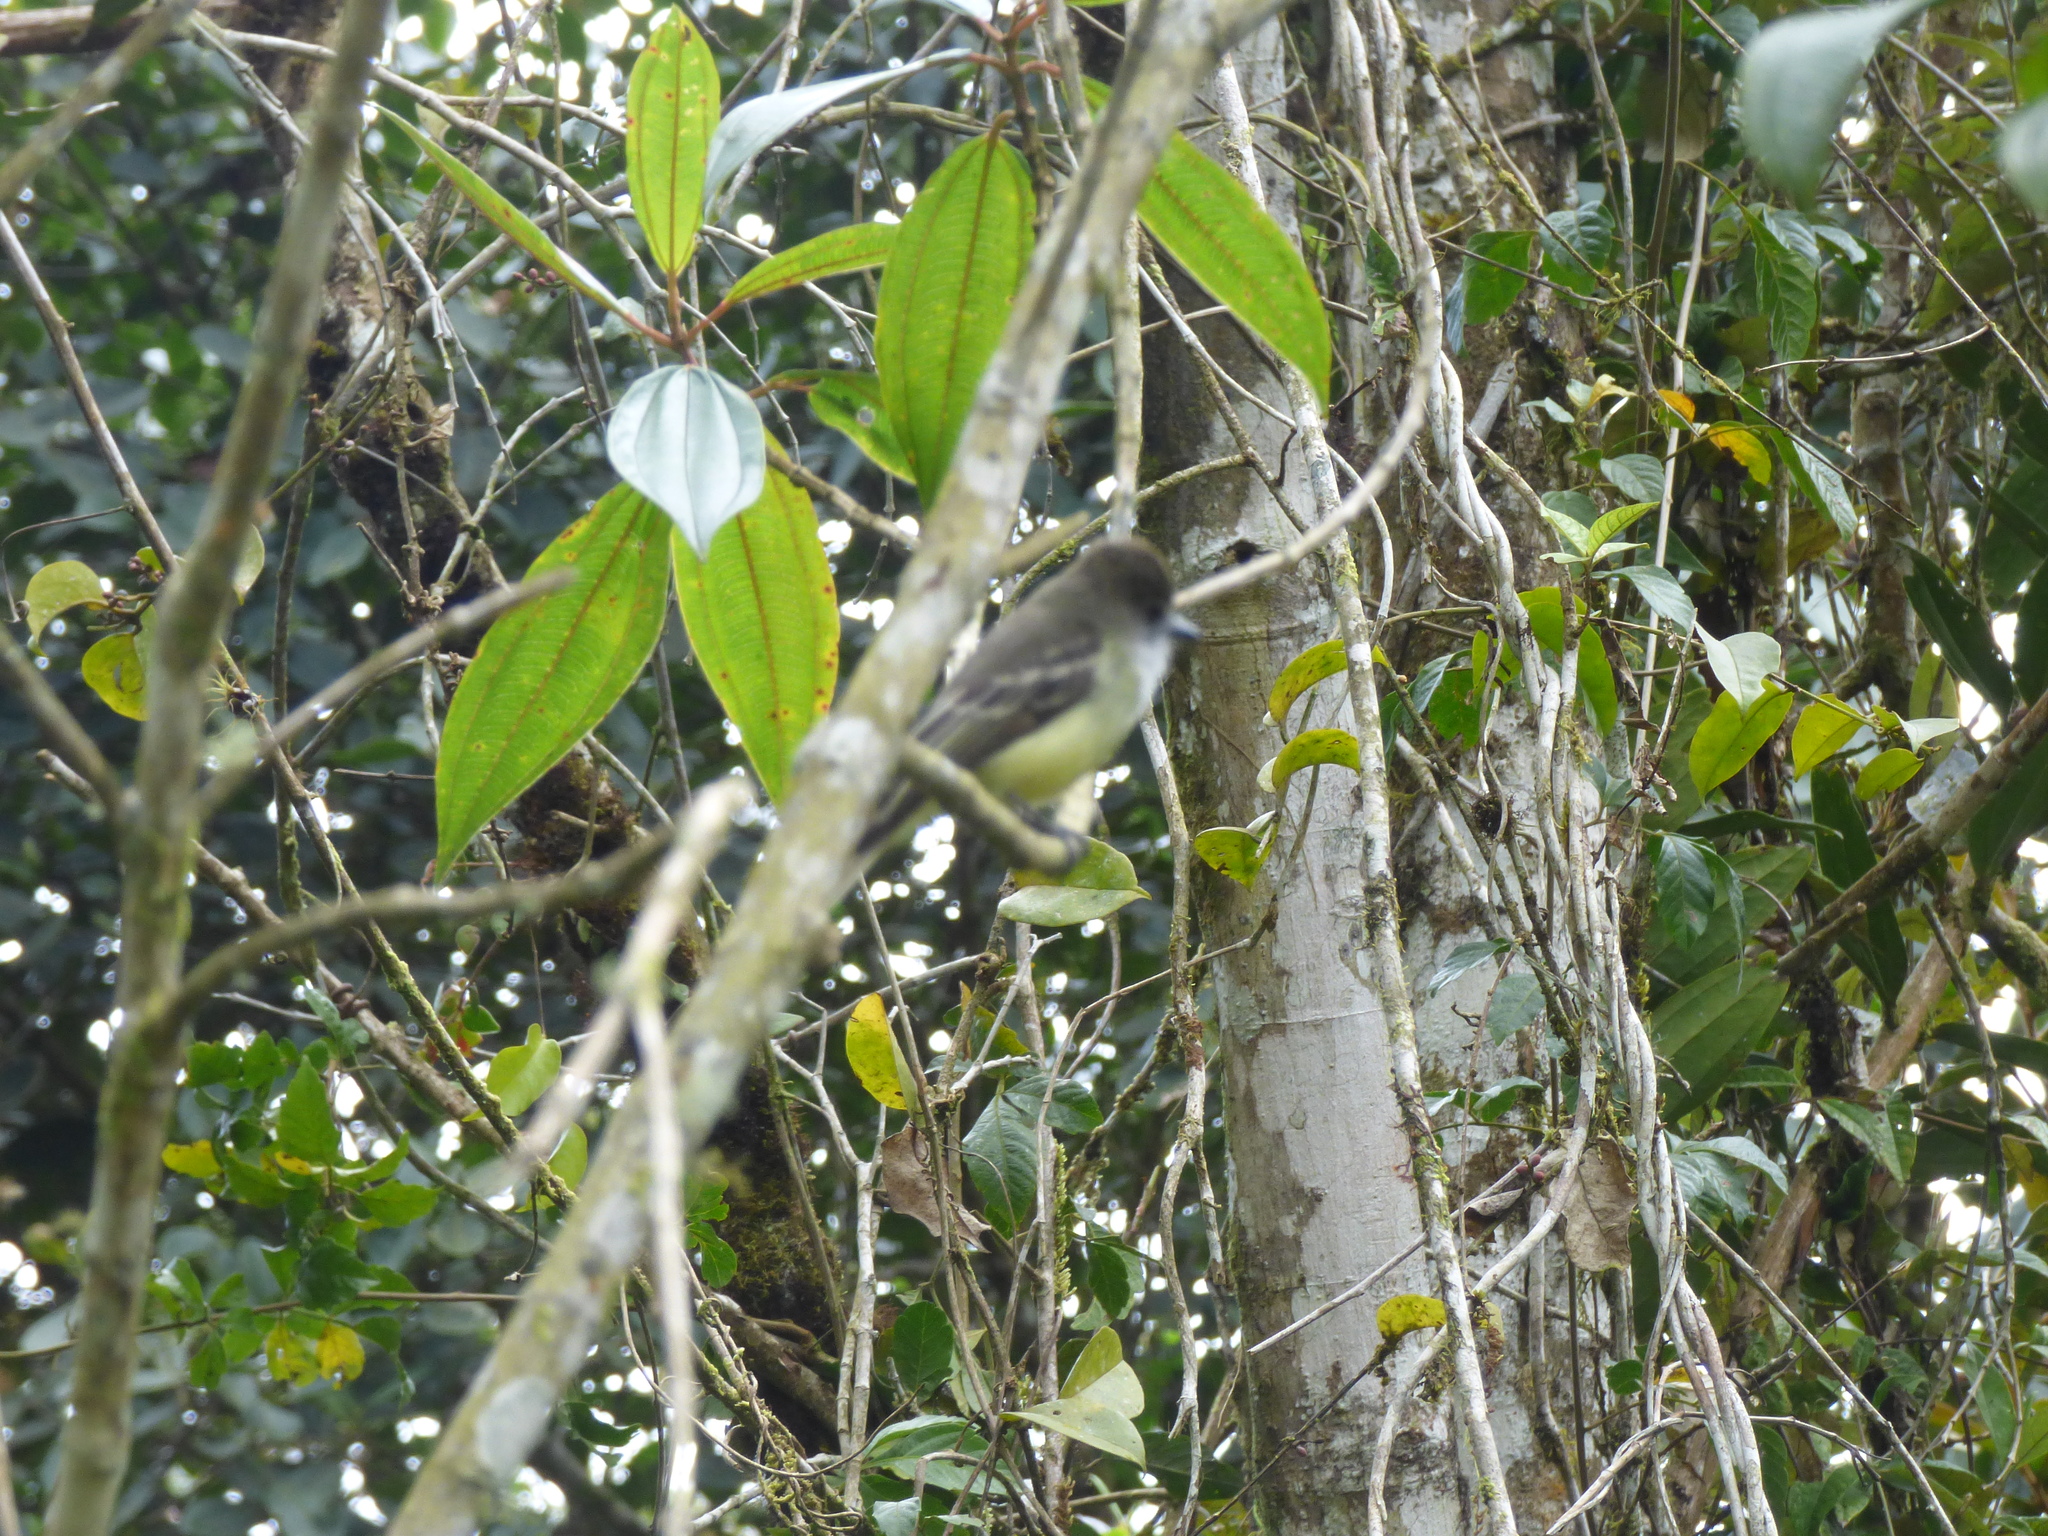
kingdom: Animalia
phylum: Chordata
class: Aves
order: Passeriformes
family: Tyrannidae
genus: Myiarchus
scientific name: Myiarchus cephalotes
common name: Pale-edged flycatcher
